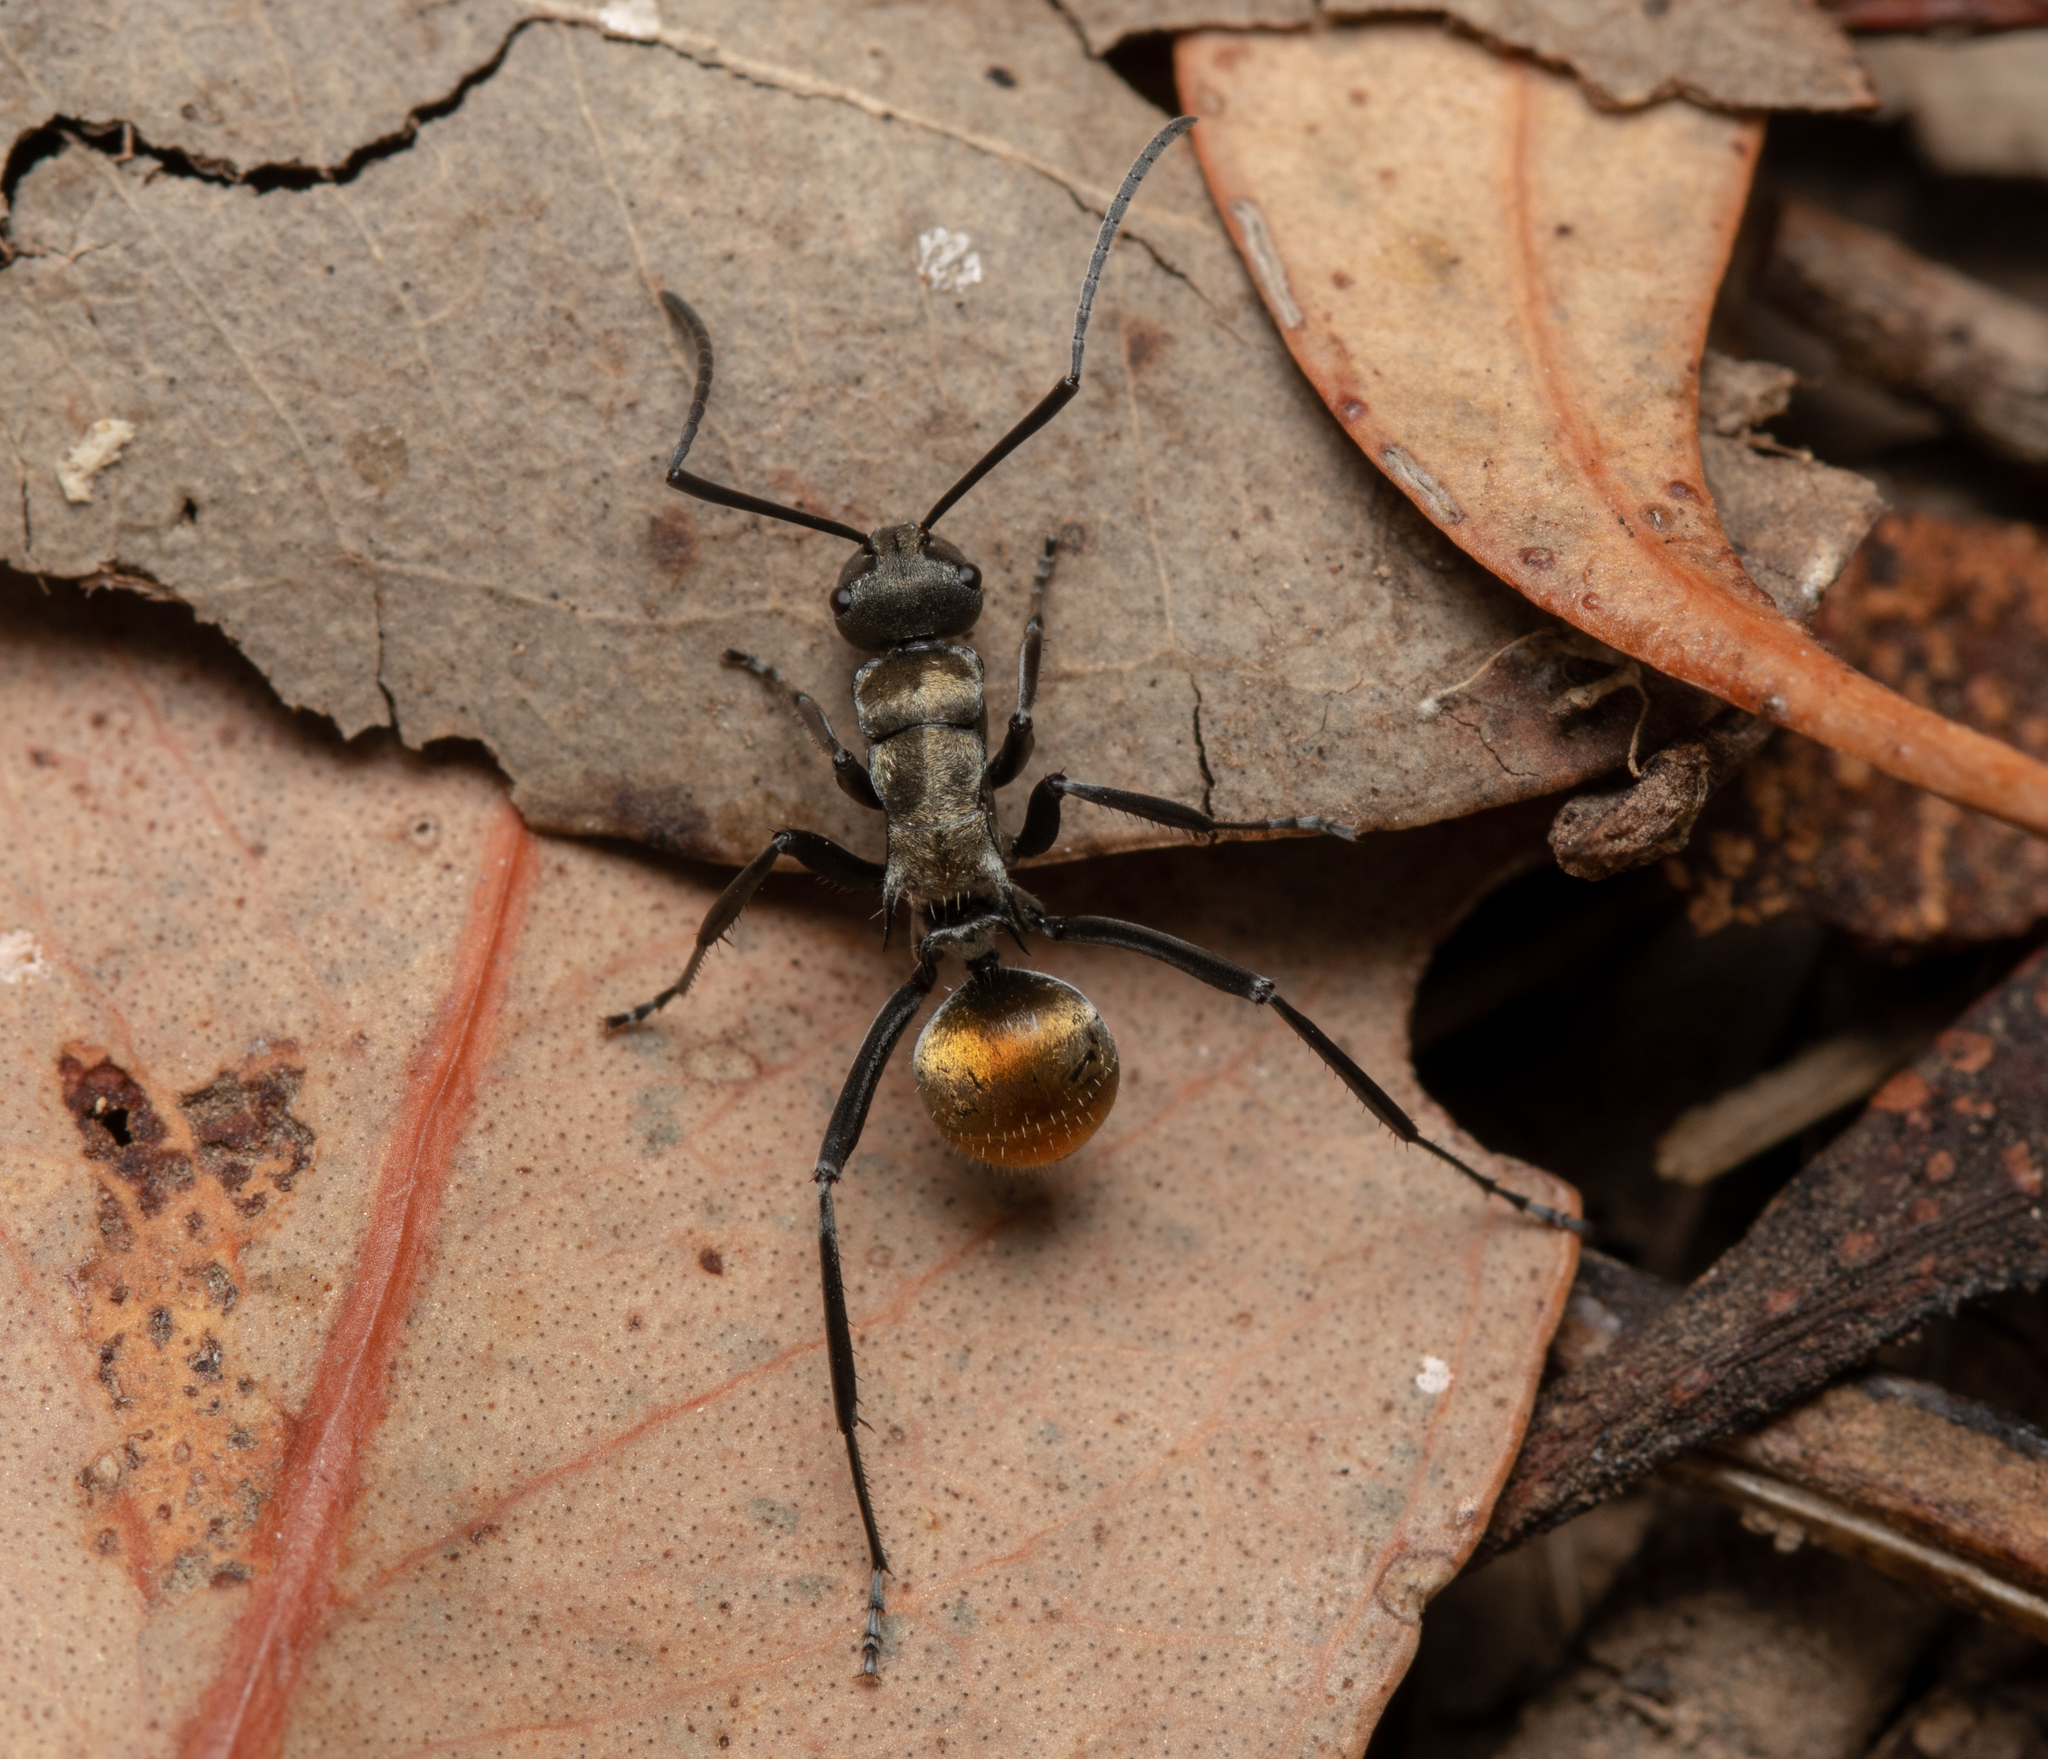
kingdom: Animalia
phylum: Arthropoda
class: Insecta
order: Hymenoptera
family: Formicidae
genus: Polyrhachis
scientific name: Polyrhachis ammon
